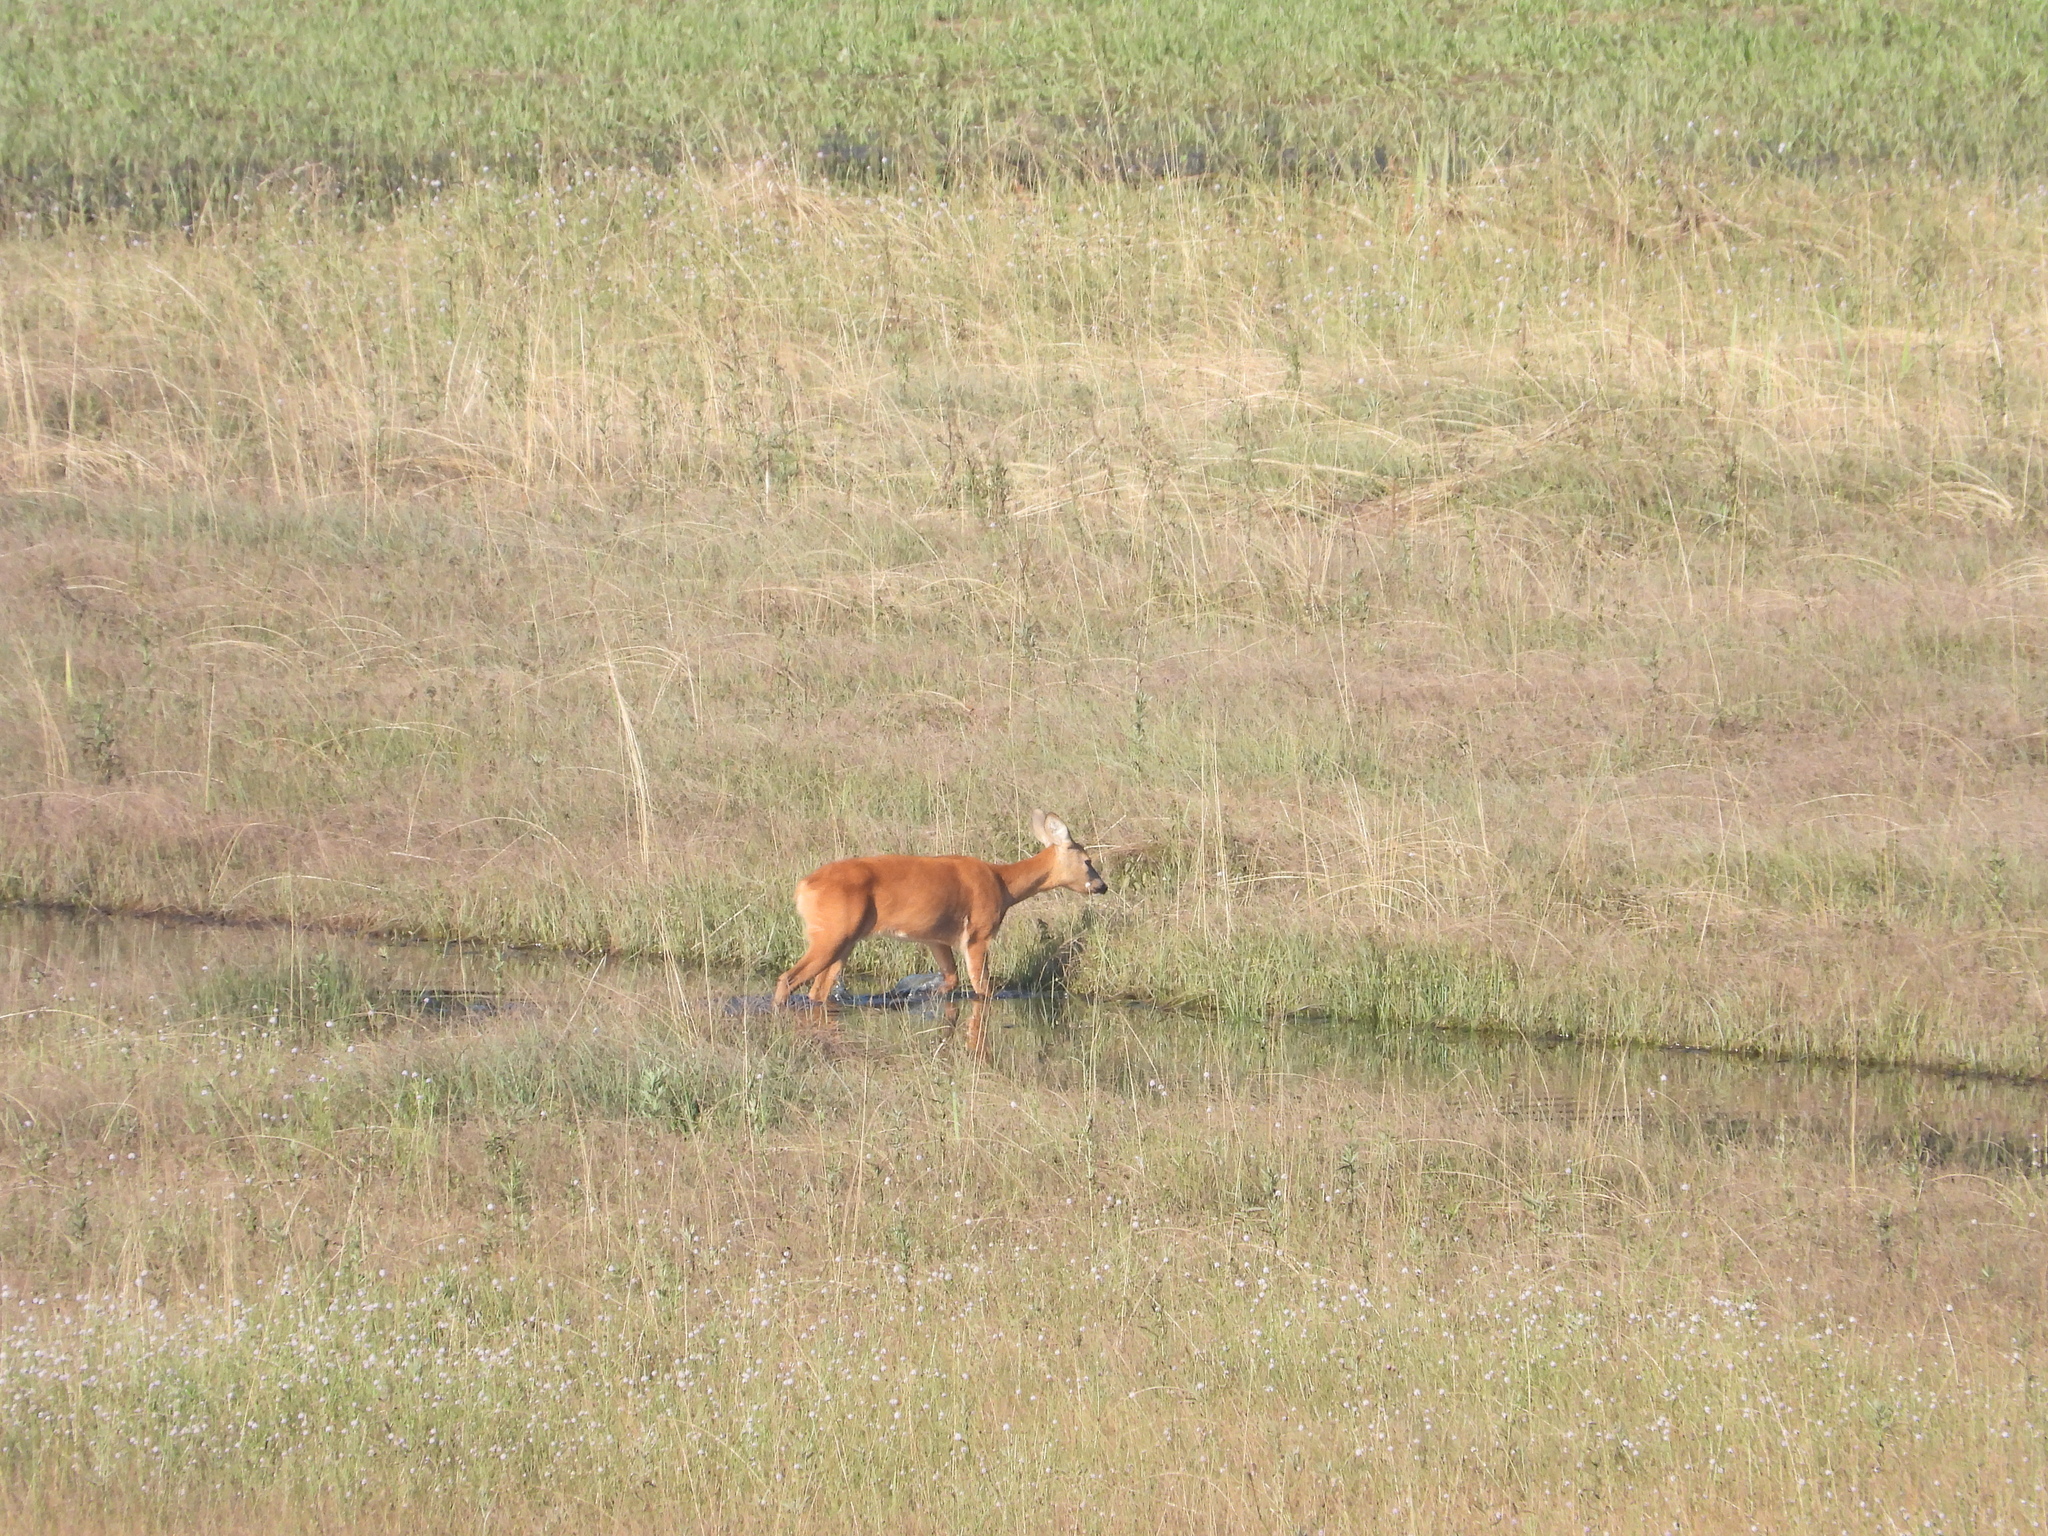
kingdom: Animalia
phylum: Chordata
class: Mammalia
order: Artiodactyla
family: Cervidae
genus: Capreolus
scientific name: Capreolus capreolus
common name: Western roe deer
